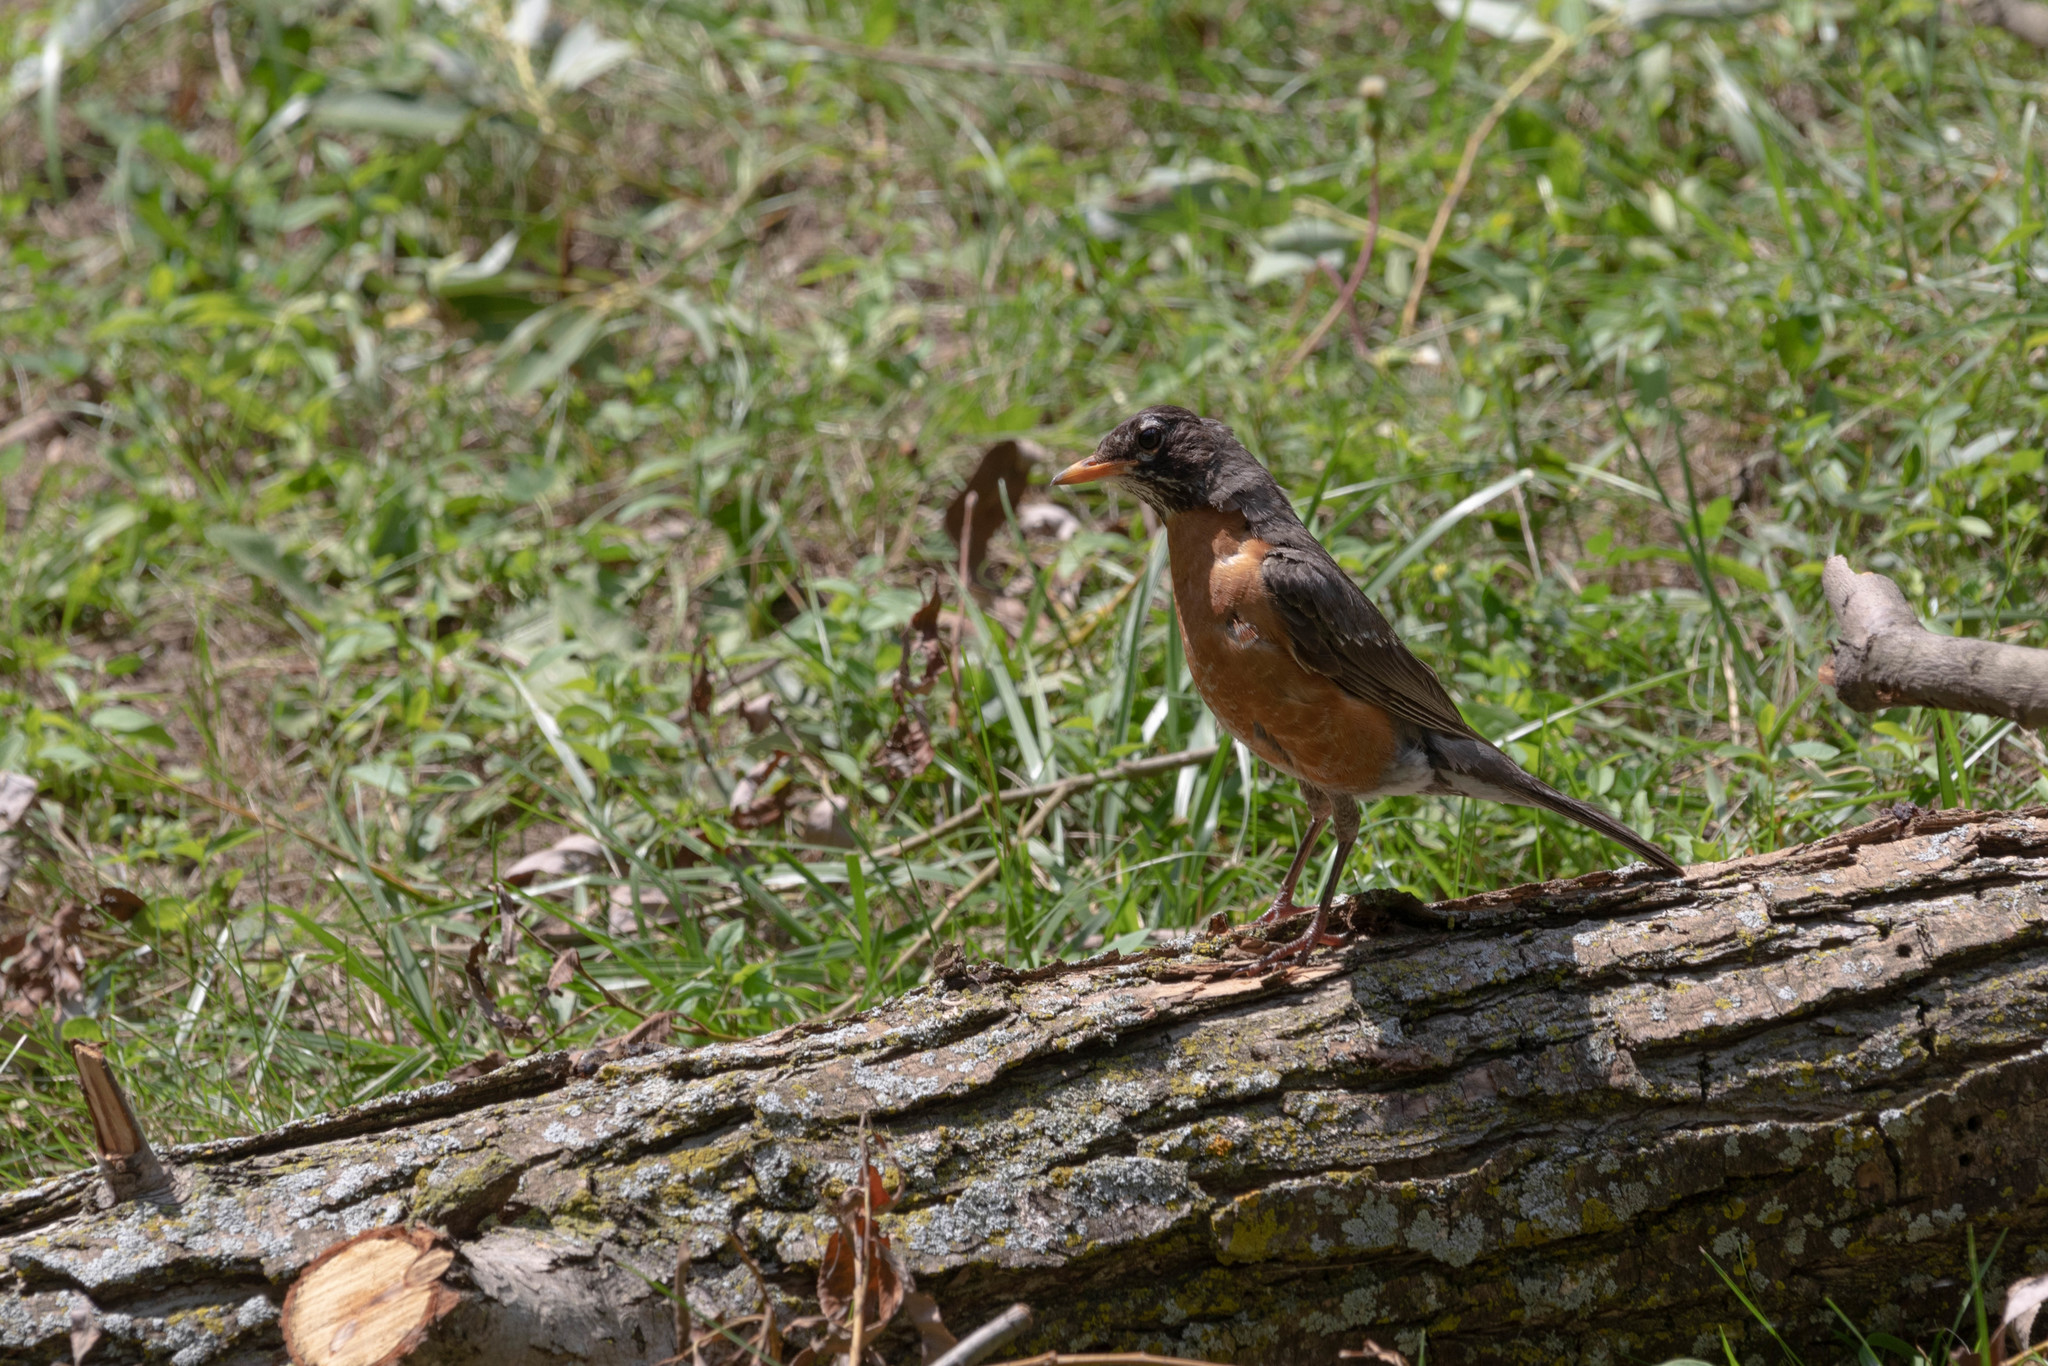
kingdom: Animalia
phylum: Chordata
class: Aves
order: Passeriformes
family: Turdidae
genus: Turdus
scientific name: Turdus migratorius
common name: American robin
